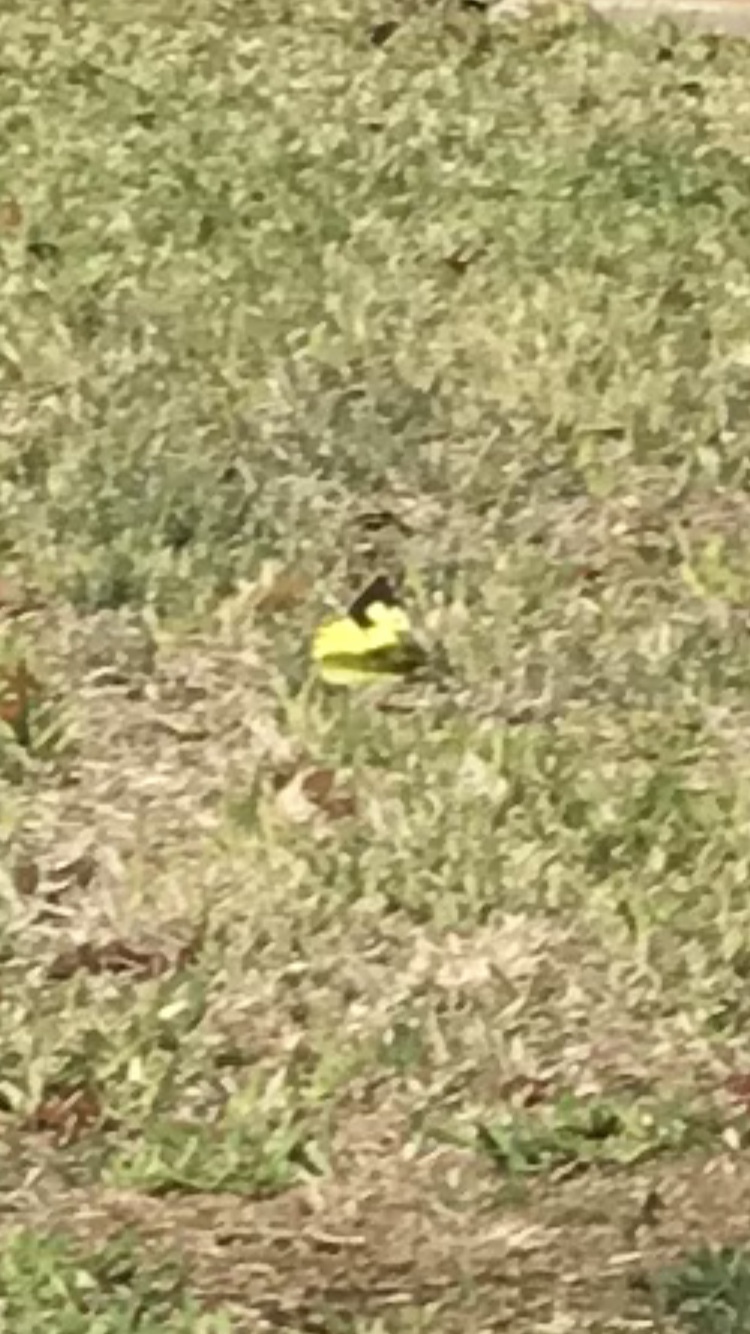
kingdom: Animalia
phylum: Arthropoda
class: Insecta
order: Lepidoptera
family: Pieridae
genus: Zerene
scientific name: Zerene cesonia
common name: Southern dogface
